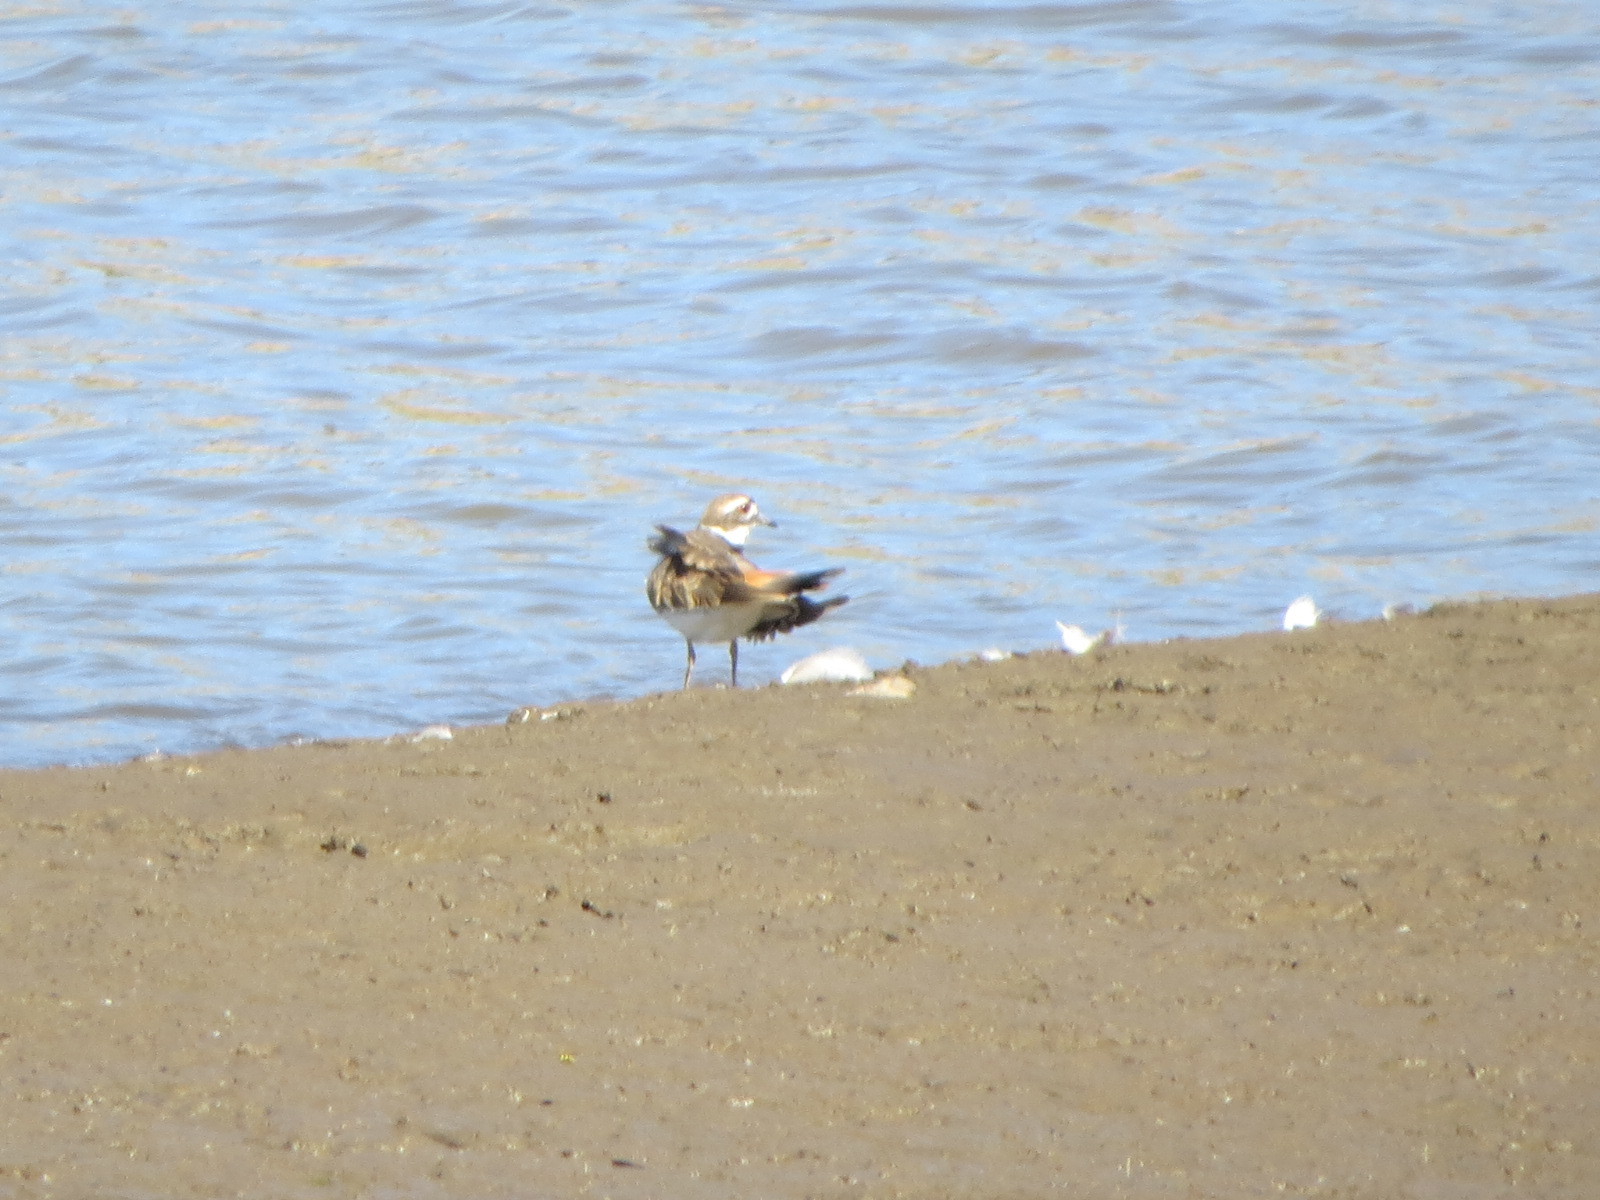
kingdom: Animalia
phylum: Chordata
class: Aves
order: Charadriiformes
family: Charadriidae
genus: Charadrius
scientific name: Charadrius vociferus
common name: Killdeer
